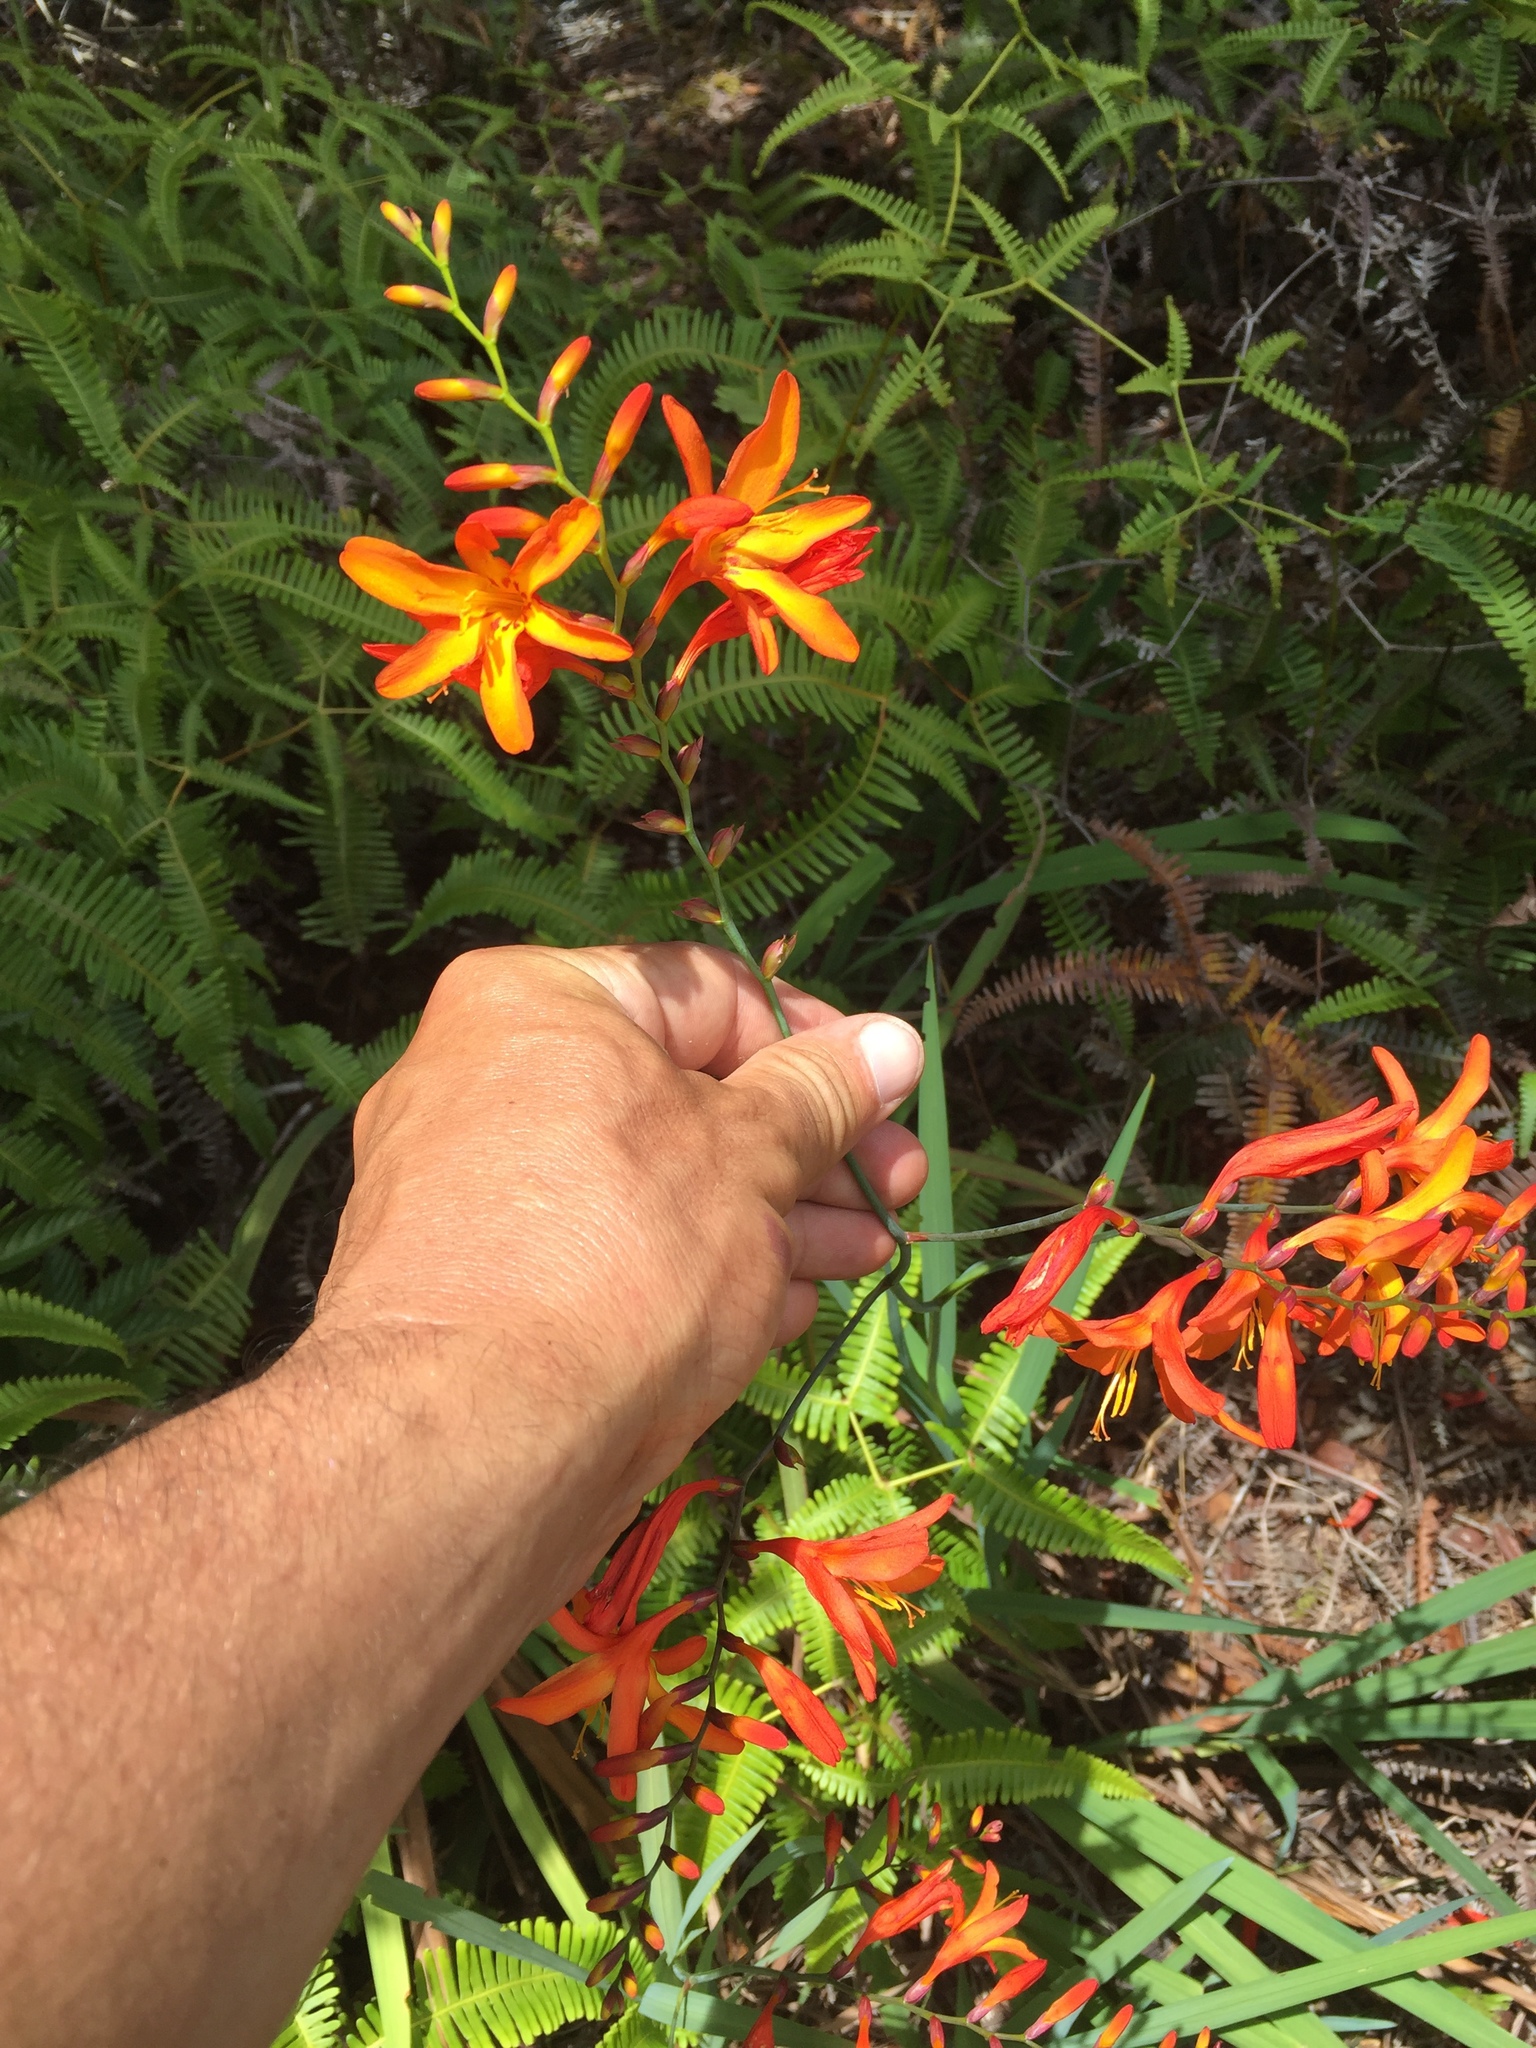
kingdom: Plantae
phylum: Tracheophyta
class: Liliopsida
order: Asparagales
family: Iridaceae
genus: Crocosmia
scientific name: Crocosmia crocosmiiflora
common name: Montbretia
